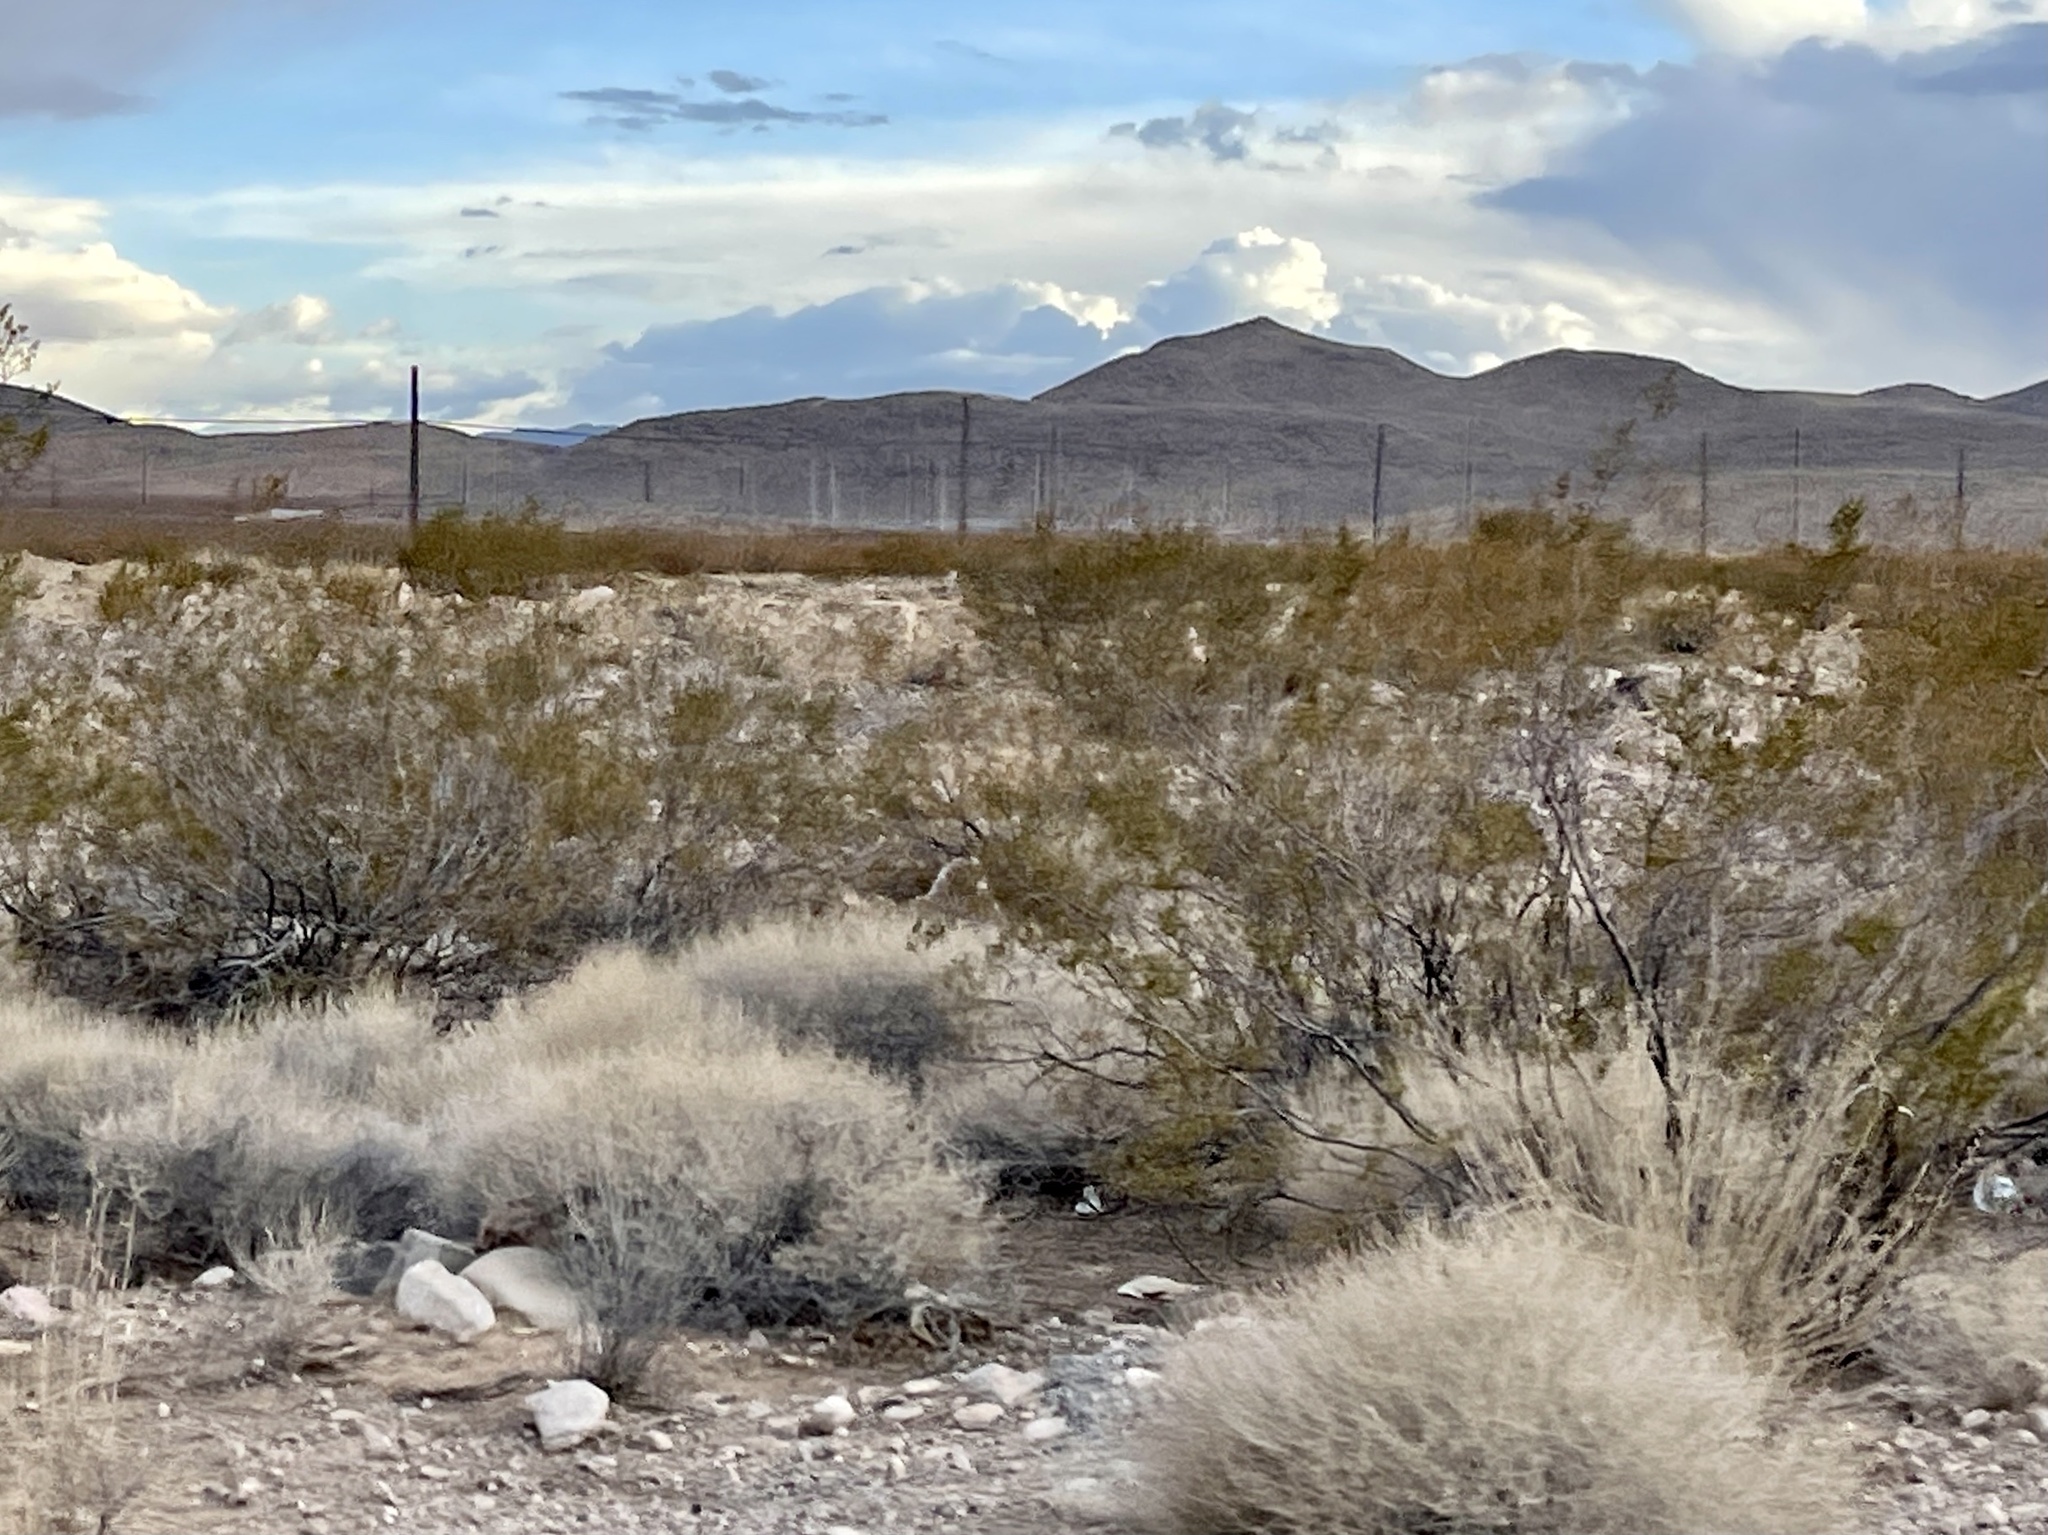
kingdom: Plantae
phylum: Tracheophyta
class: Magnoliopsida
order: Zygophyllales
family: Zygophyllaceae
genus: Larrea
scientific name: Larrea tridentata
